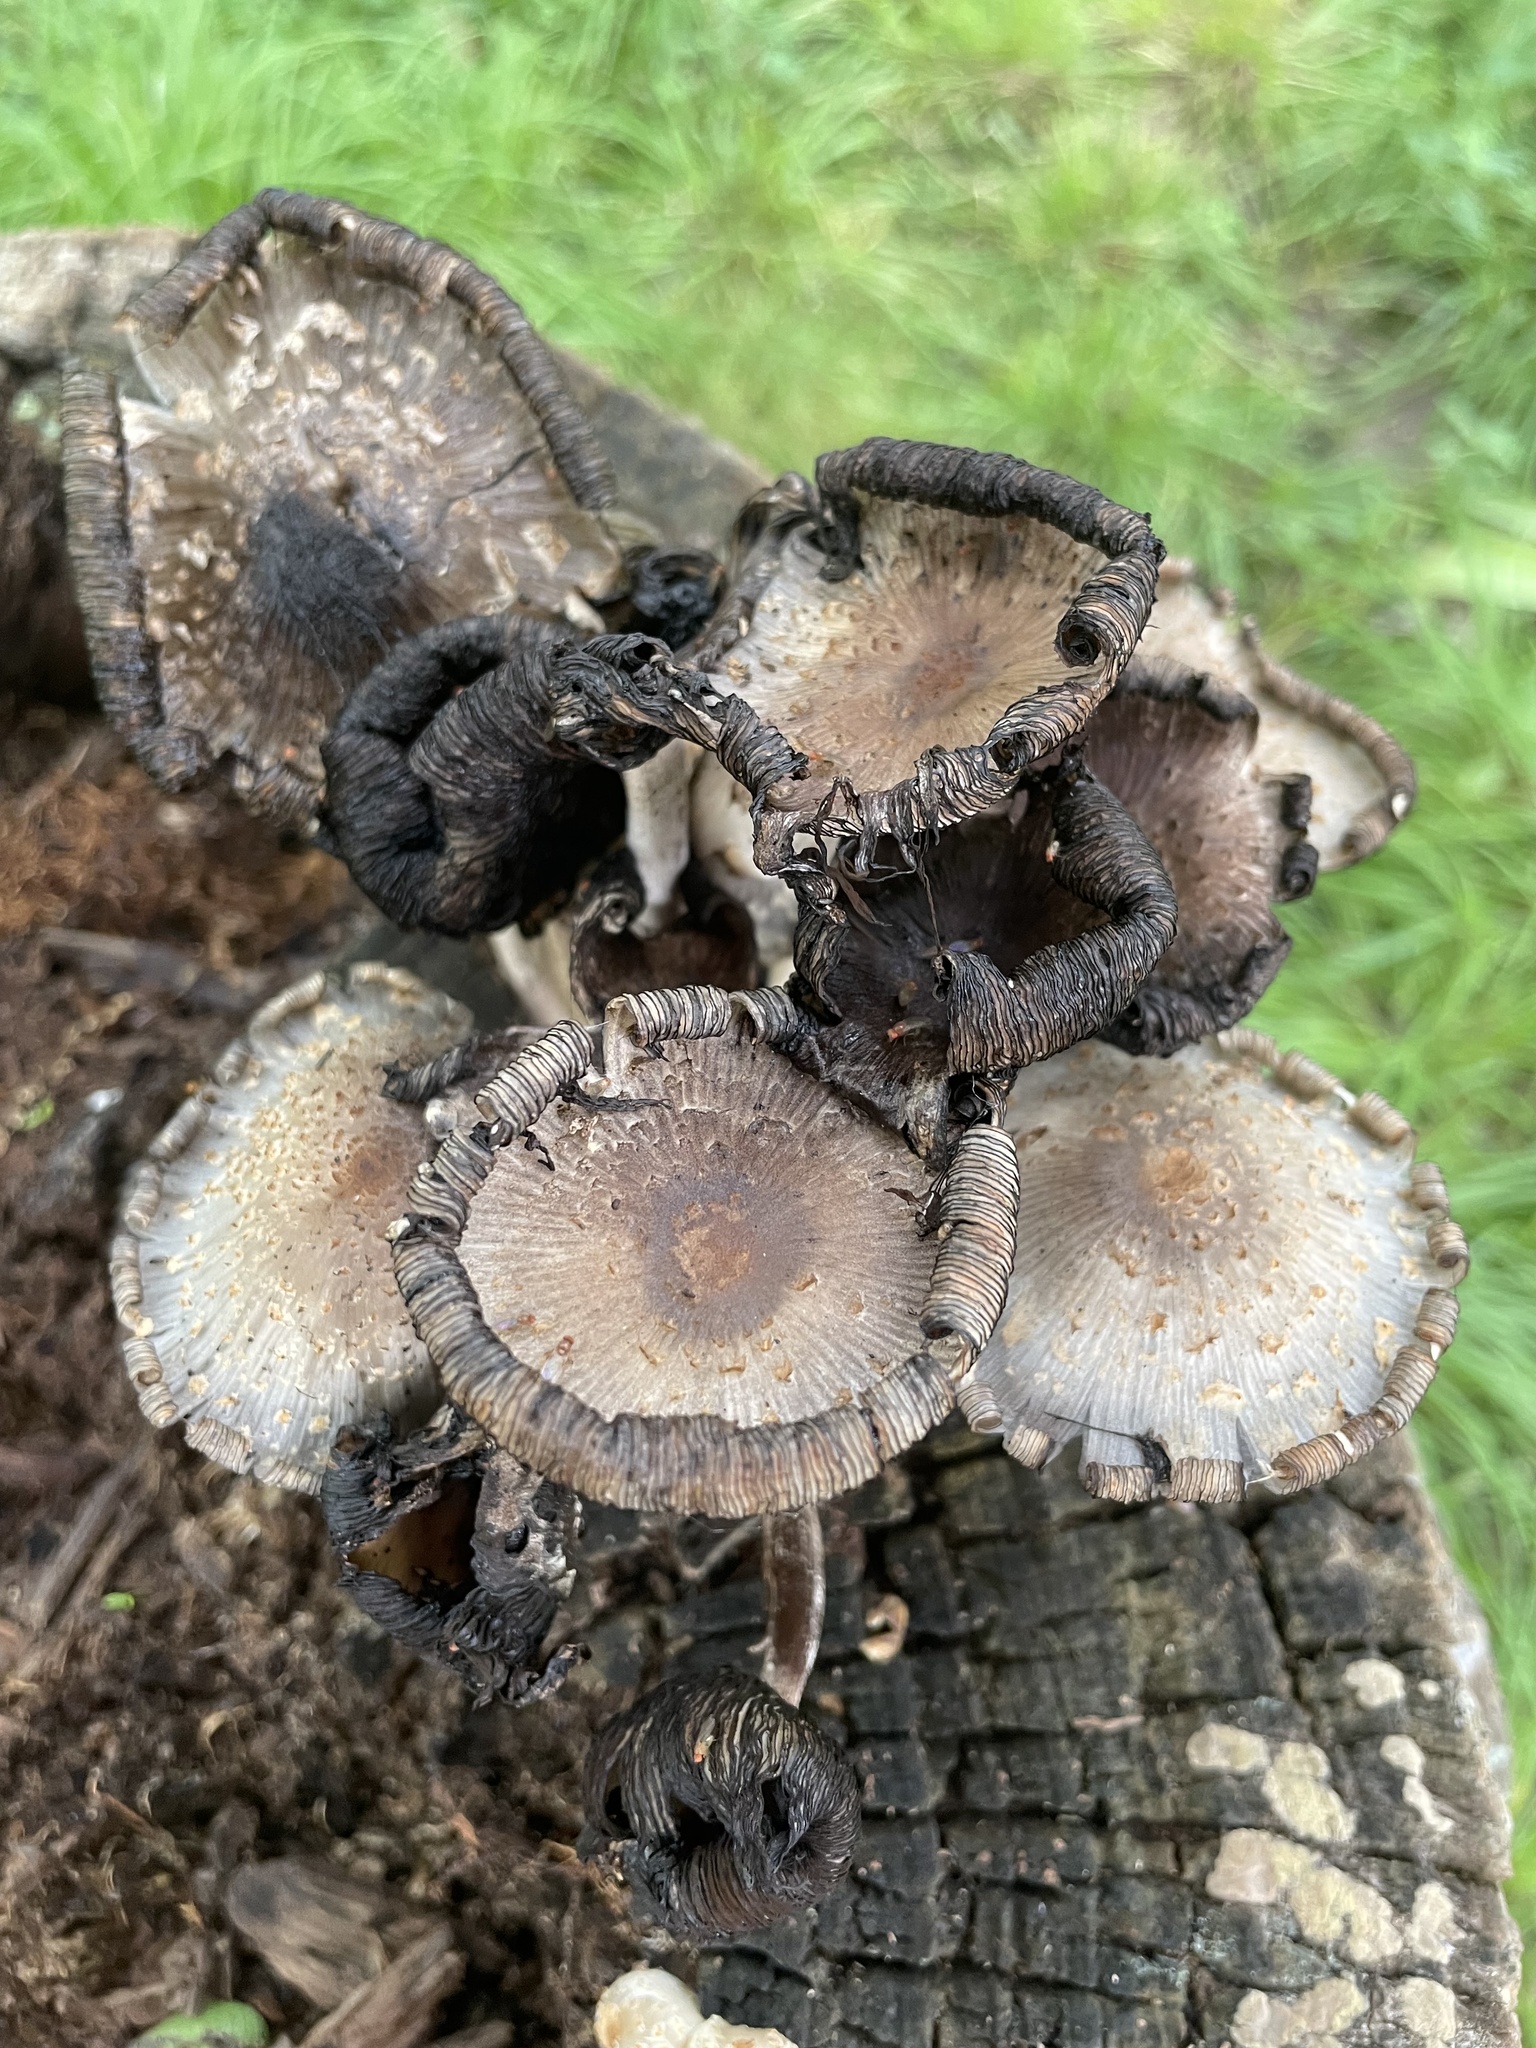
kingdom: Fungi
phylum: Basidiomycota
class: Agaricomycetes
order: Agaricales
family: Psathyrellaceae
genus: Coprinopsis
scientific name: Coprinopsis variegata
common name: Scaly ink cap
